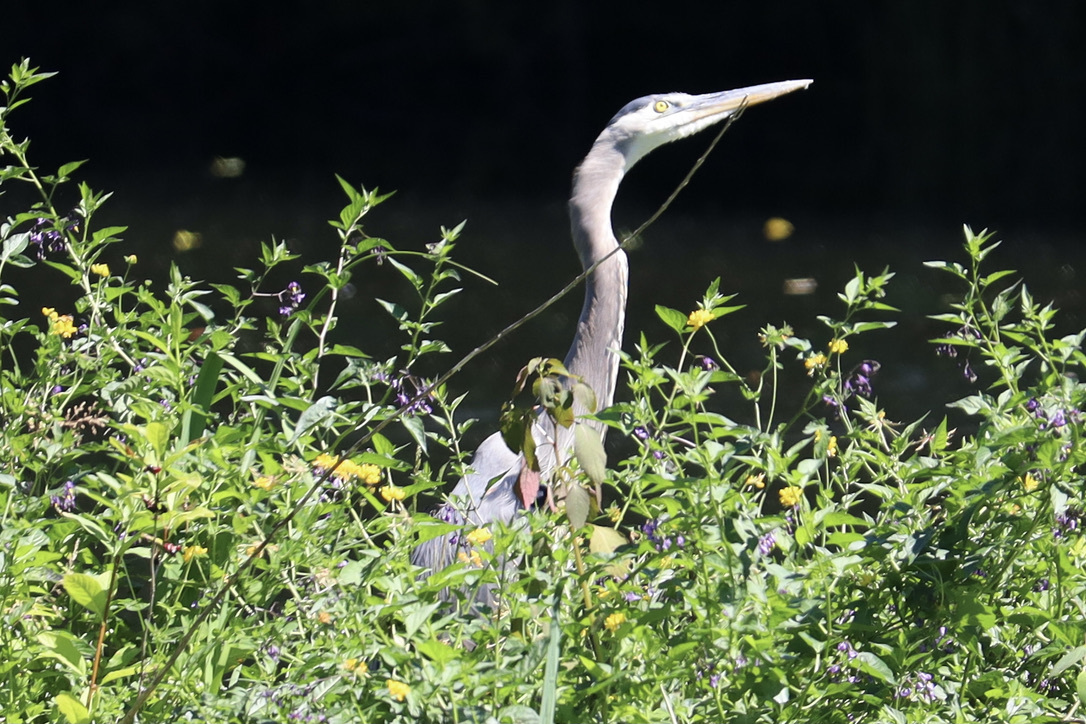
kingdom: Animalia
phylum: Chordata
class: Aves
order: Pelecaniformes
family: Ardeidae
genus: Ardea
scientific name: Ardea herodias
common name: Great blue heron
